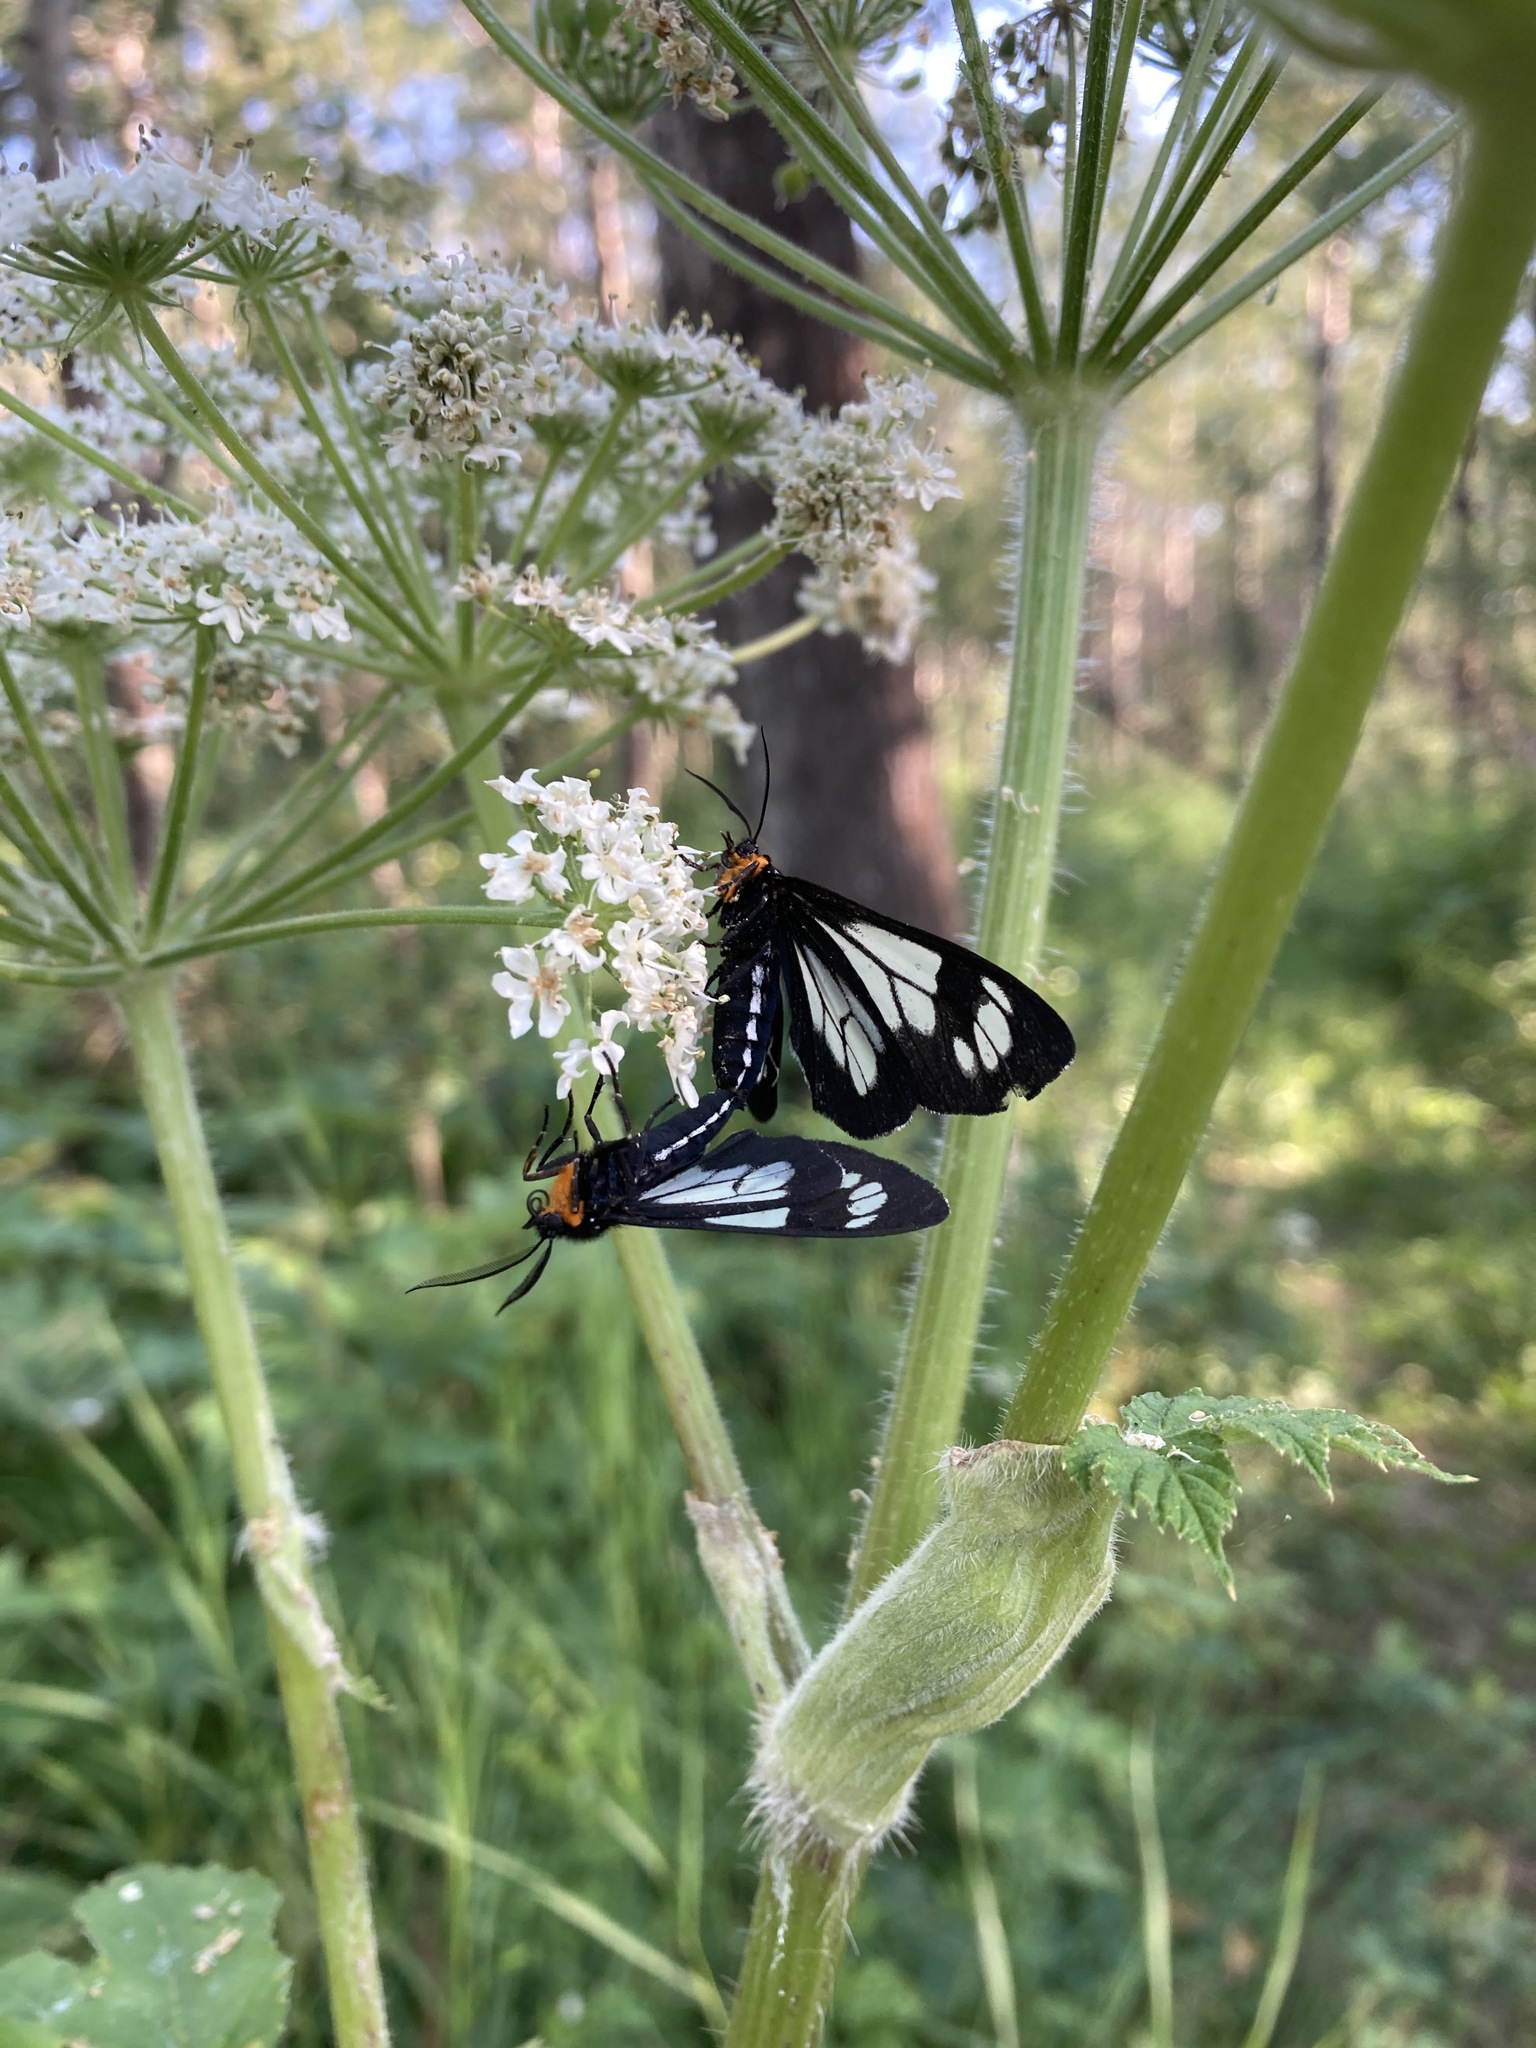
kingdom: Animalia
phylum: Arthropoda
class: Insecta
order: Lepidoptera
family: Erebidae
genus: Gnophaela
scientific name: Gnophaela vermiculata
